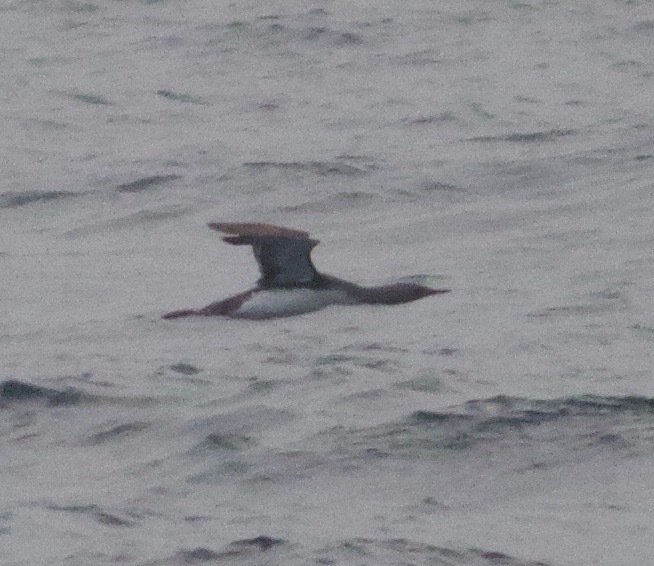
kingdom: Animalia
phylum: Chordata
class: Aves
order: Gaviiformes
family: Gaviidae
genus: Gavia
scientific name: Gavia stellata
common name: Red-throated loon
